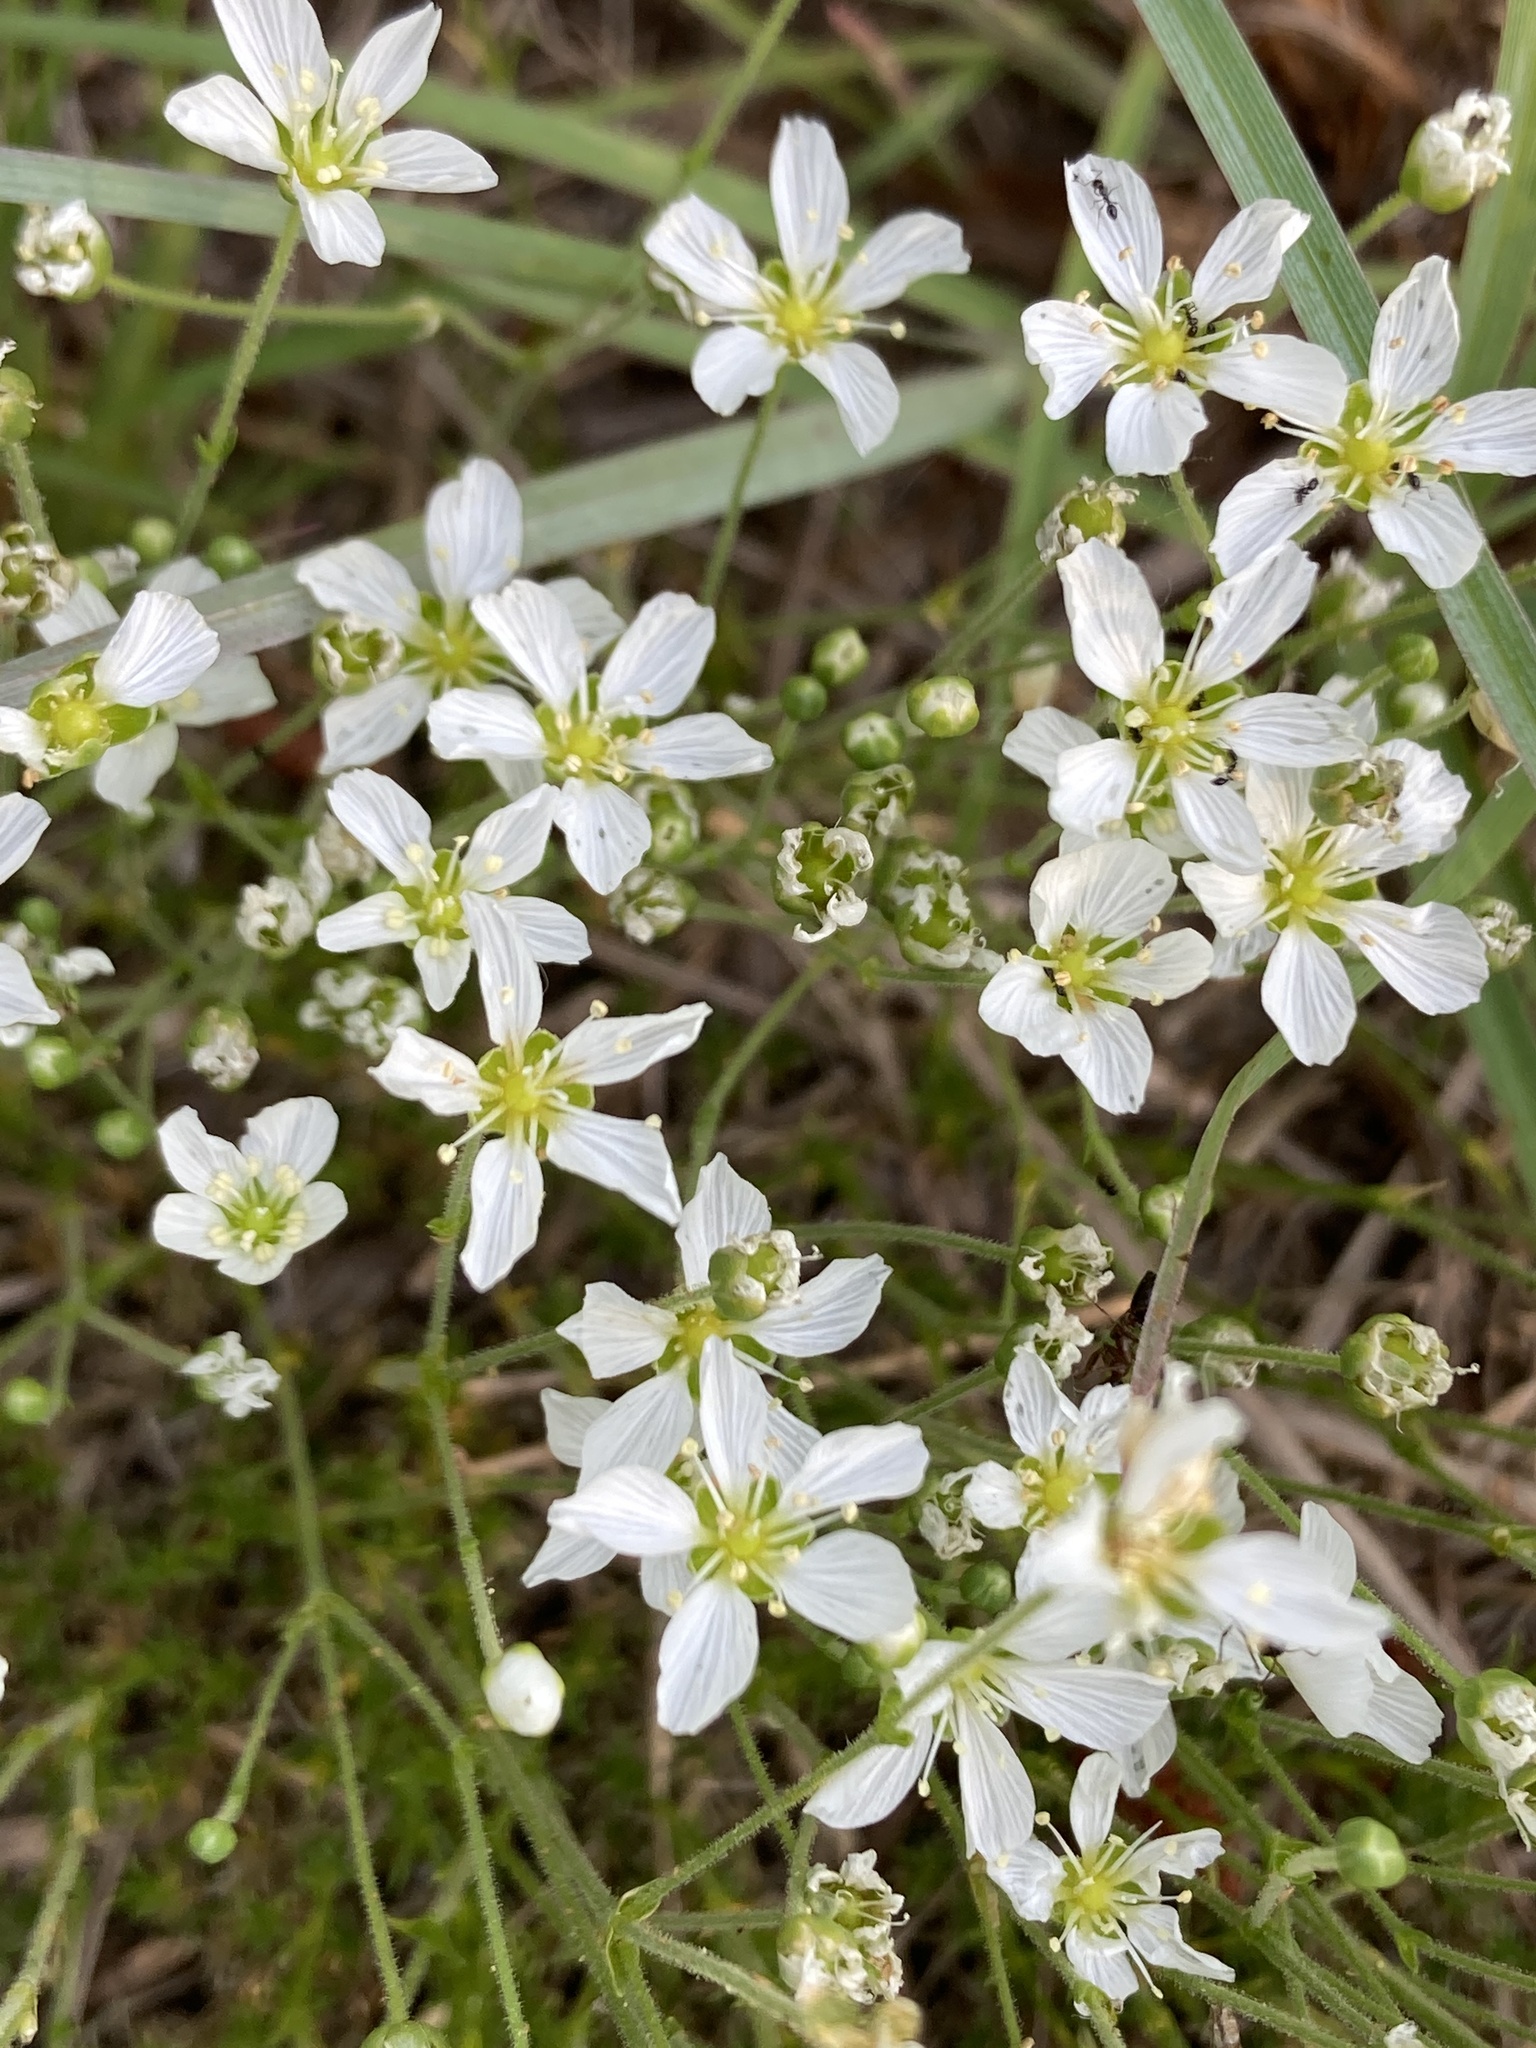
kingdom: Plantae
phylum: Tracheophyta
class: Magnoliopsida
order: Caryophyllales
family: Caryophyllaceae
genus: Geocarpon
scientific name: Geocarpon carolinianum
